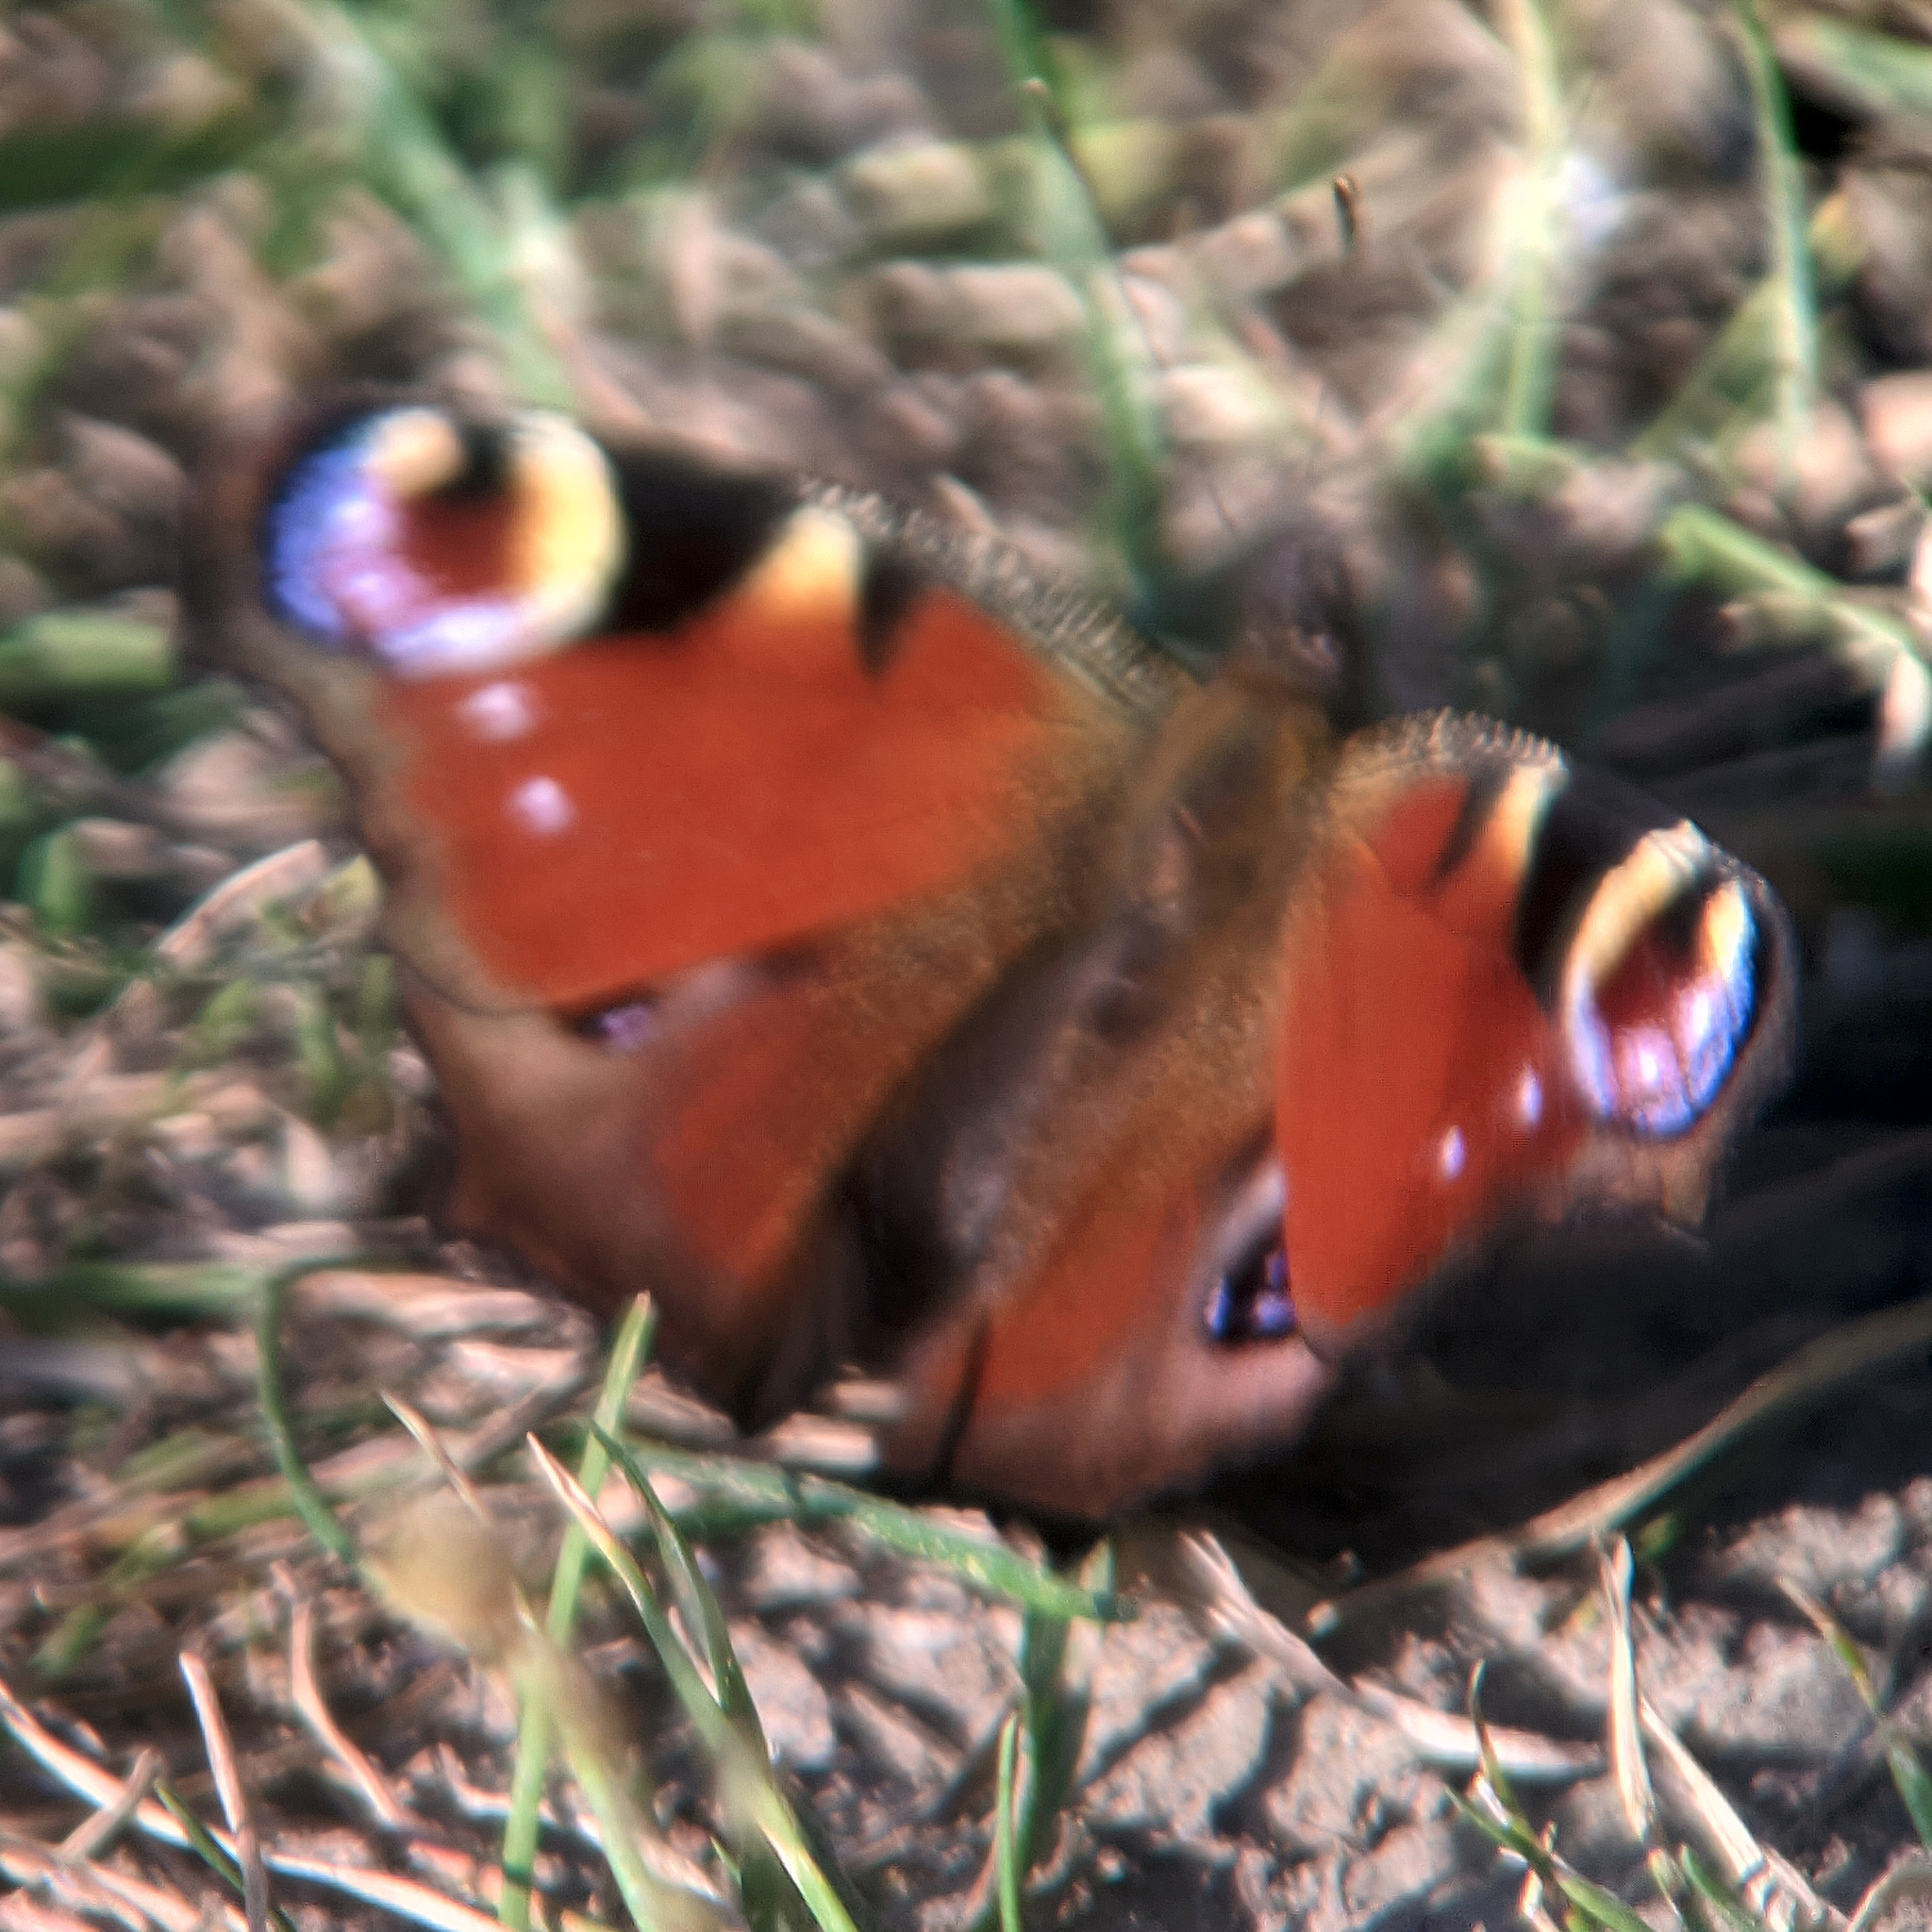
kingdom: Animalia
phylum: Arthropoda
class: Insecta
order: Lepidoptera
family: Nymphalidae
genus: Aglais
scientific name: Aglais io
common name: Peacock
